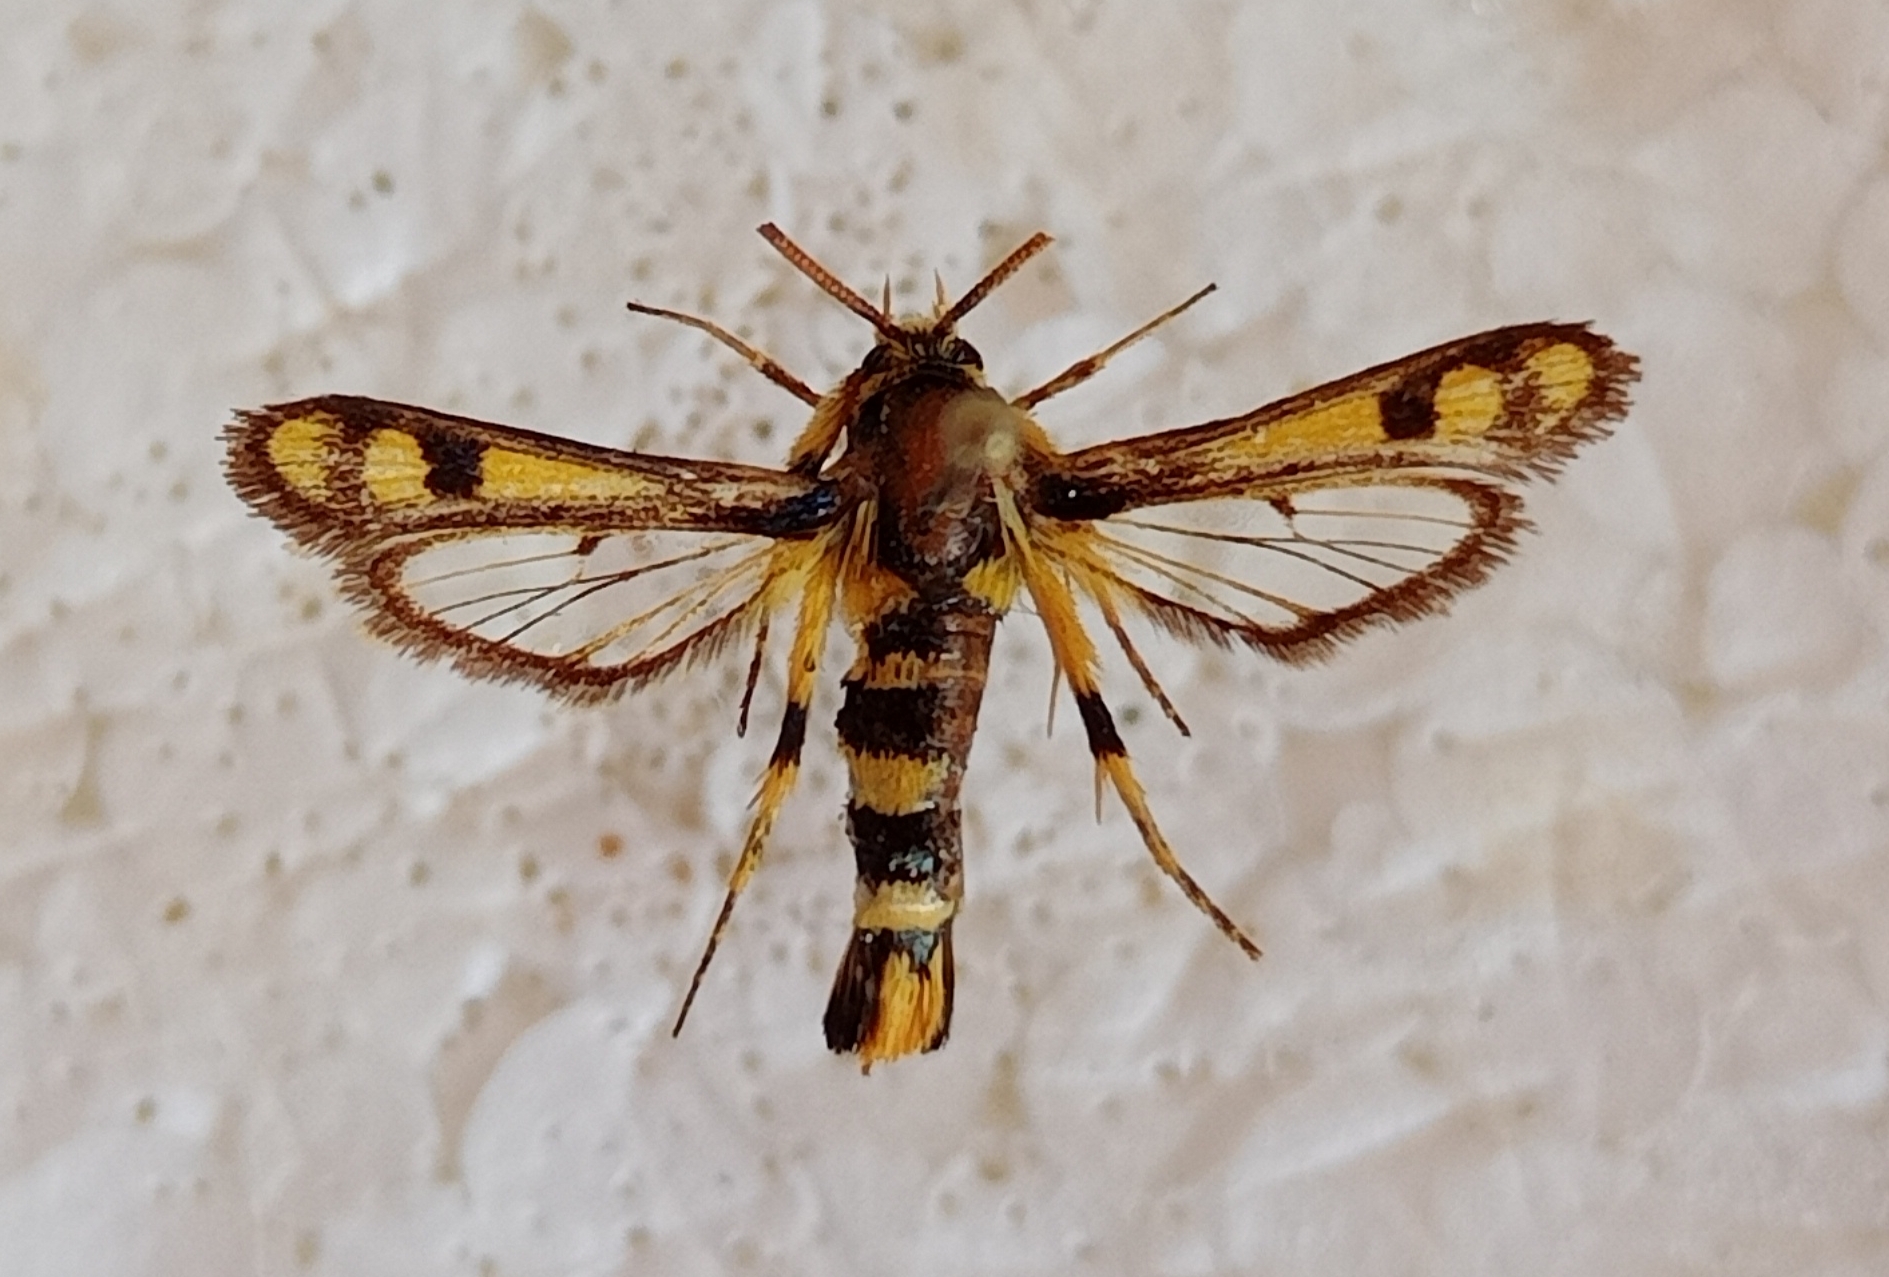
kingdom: Animalia
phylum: Arthropoda
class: Insecta
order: Lepidoptera
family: Sesiidae
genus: Chamaesphecia
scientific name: Chamaesphecia masariformis
